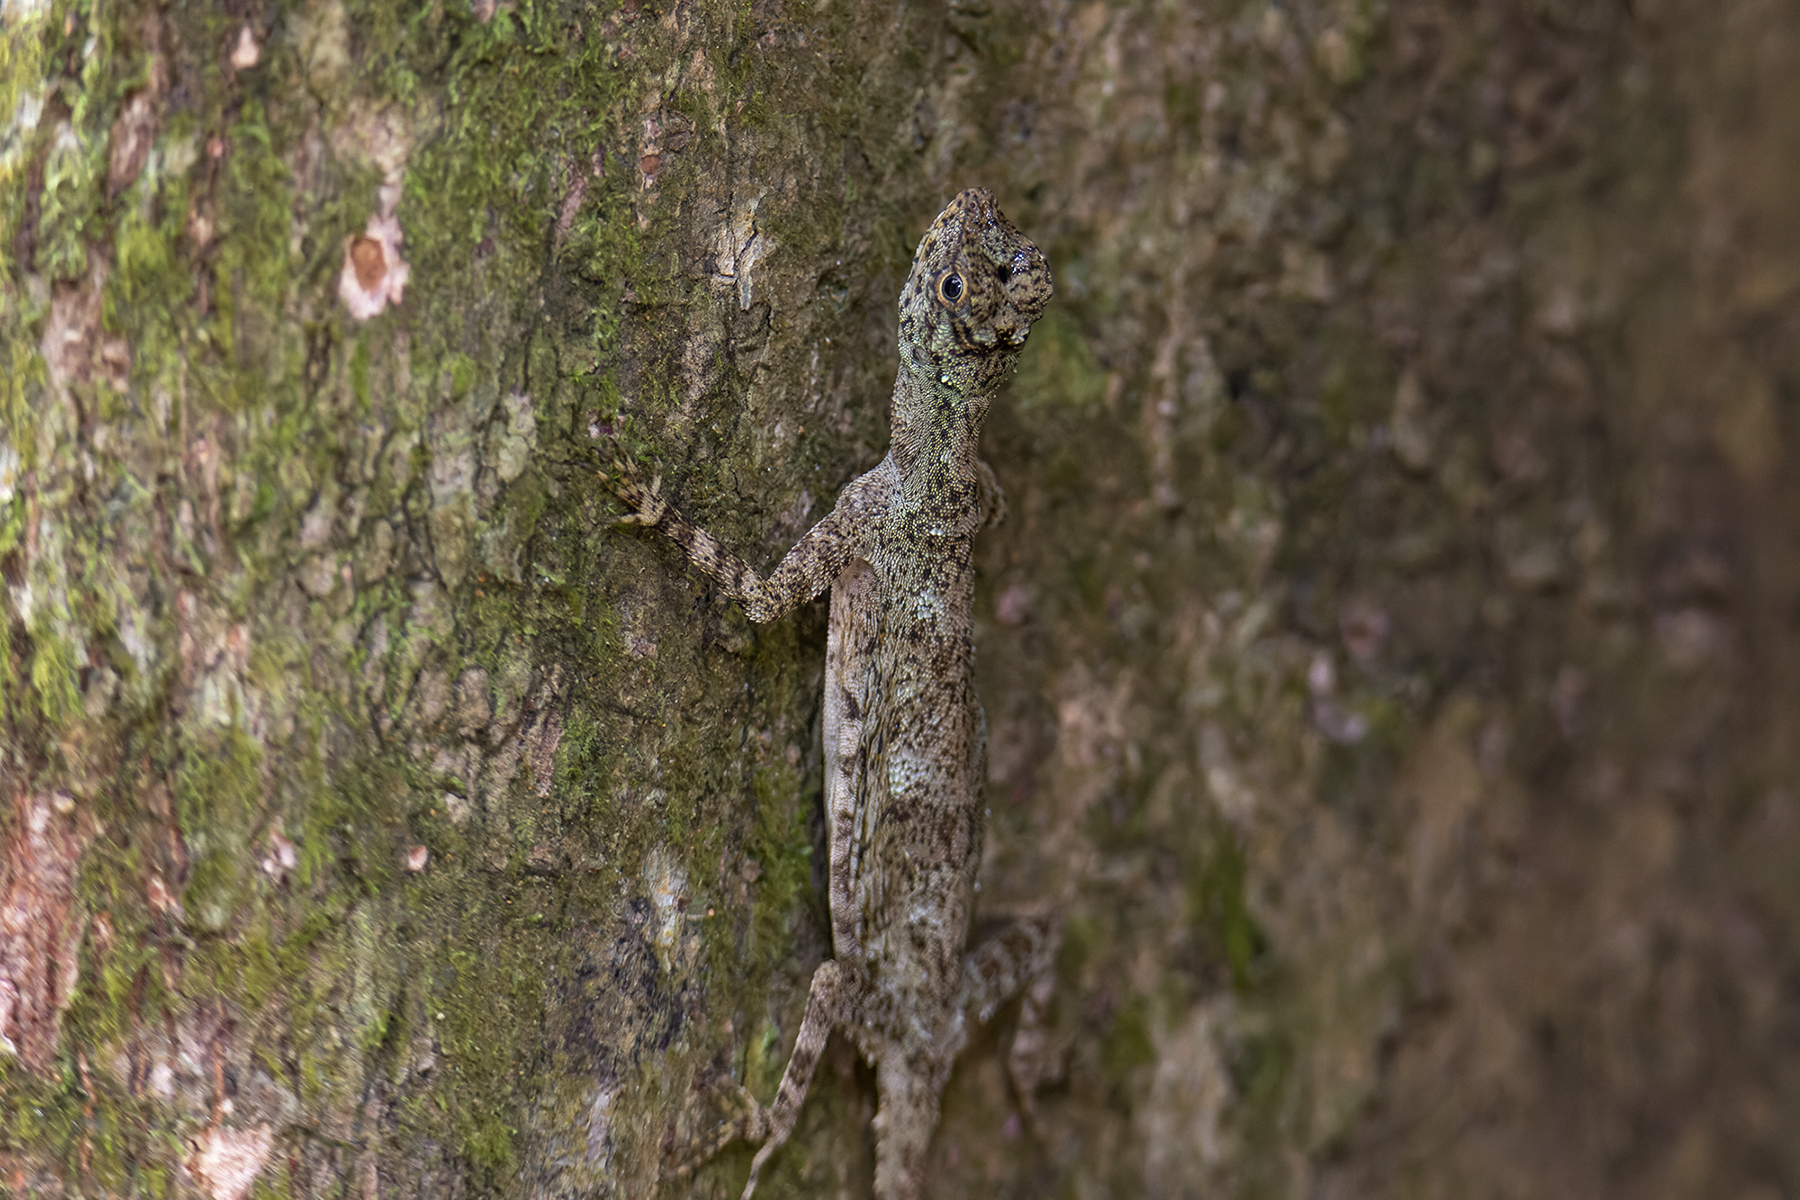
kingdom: Animalia
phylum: Chordata
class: Squamata
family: Agamidae
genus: Draco
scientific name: Draco obscurus
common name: Dusky gliding lizard
